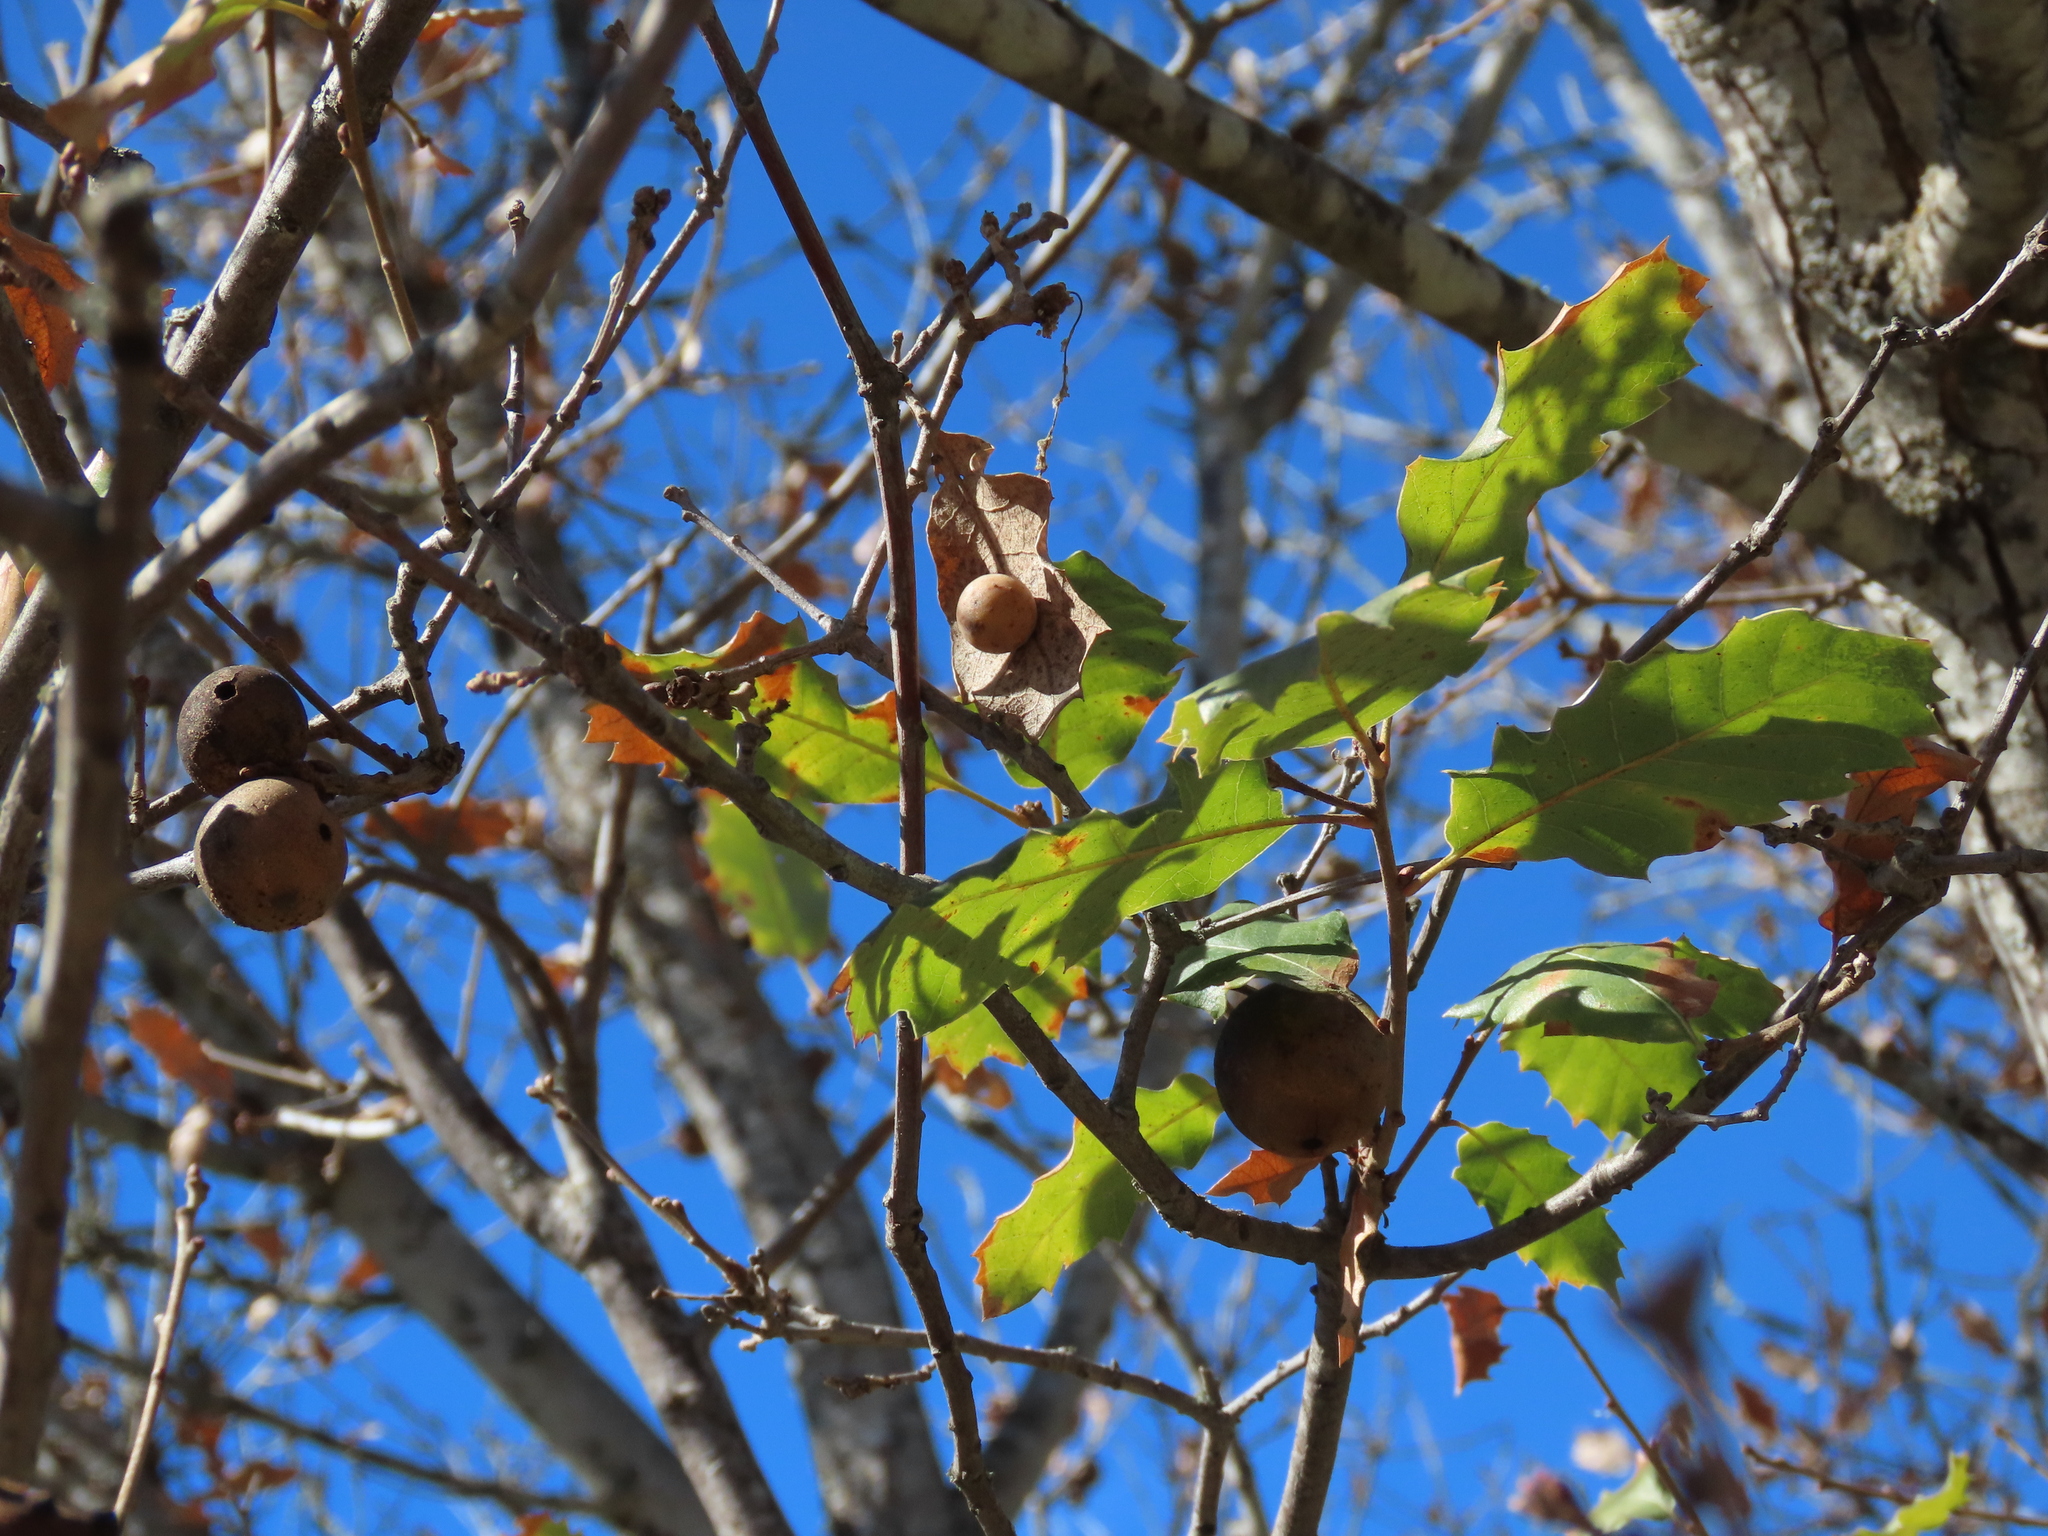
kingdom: Plantae
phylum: Tracheophyta
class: Magnoliopsida
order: Fagales
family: Fagaceae
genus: Quercus
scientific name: Quercus faginea
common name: Gall oak tree
